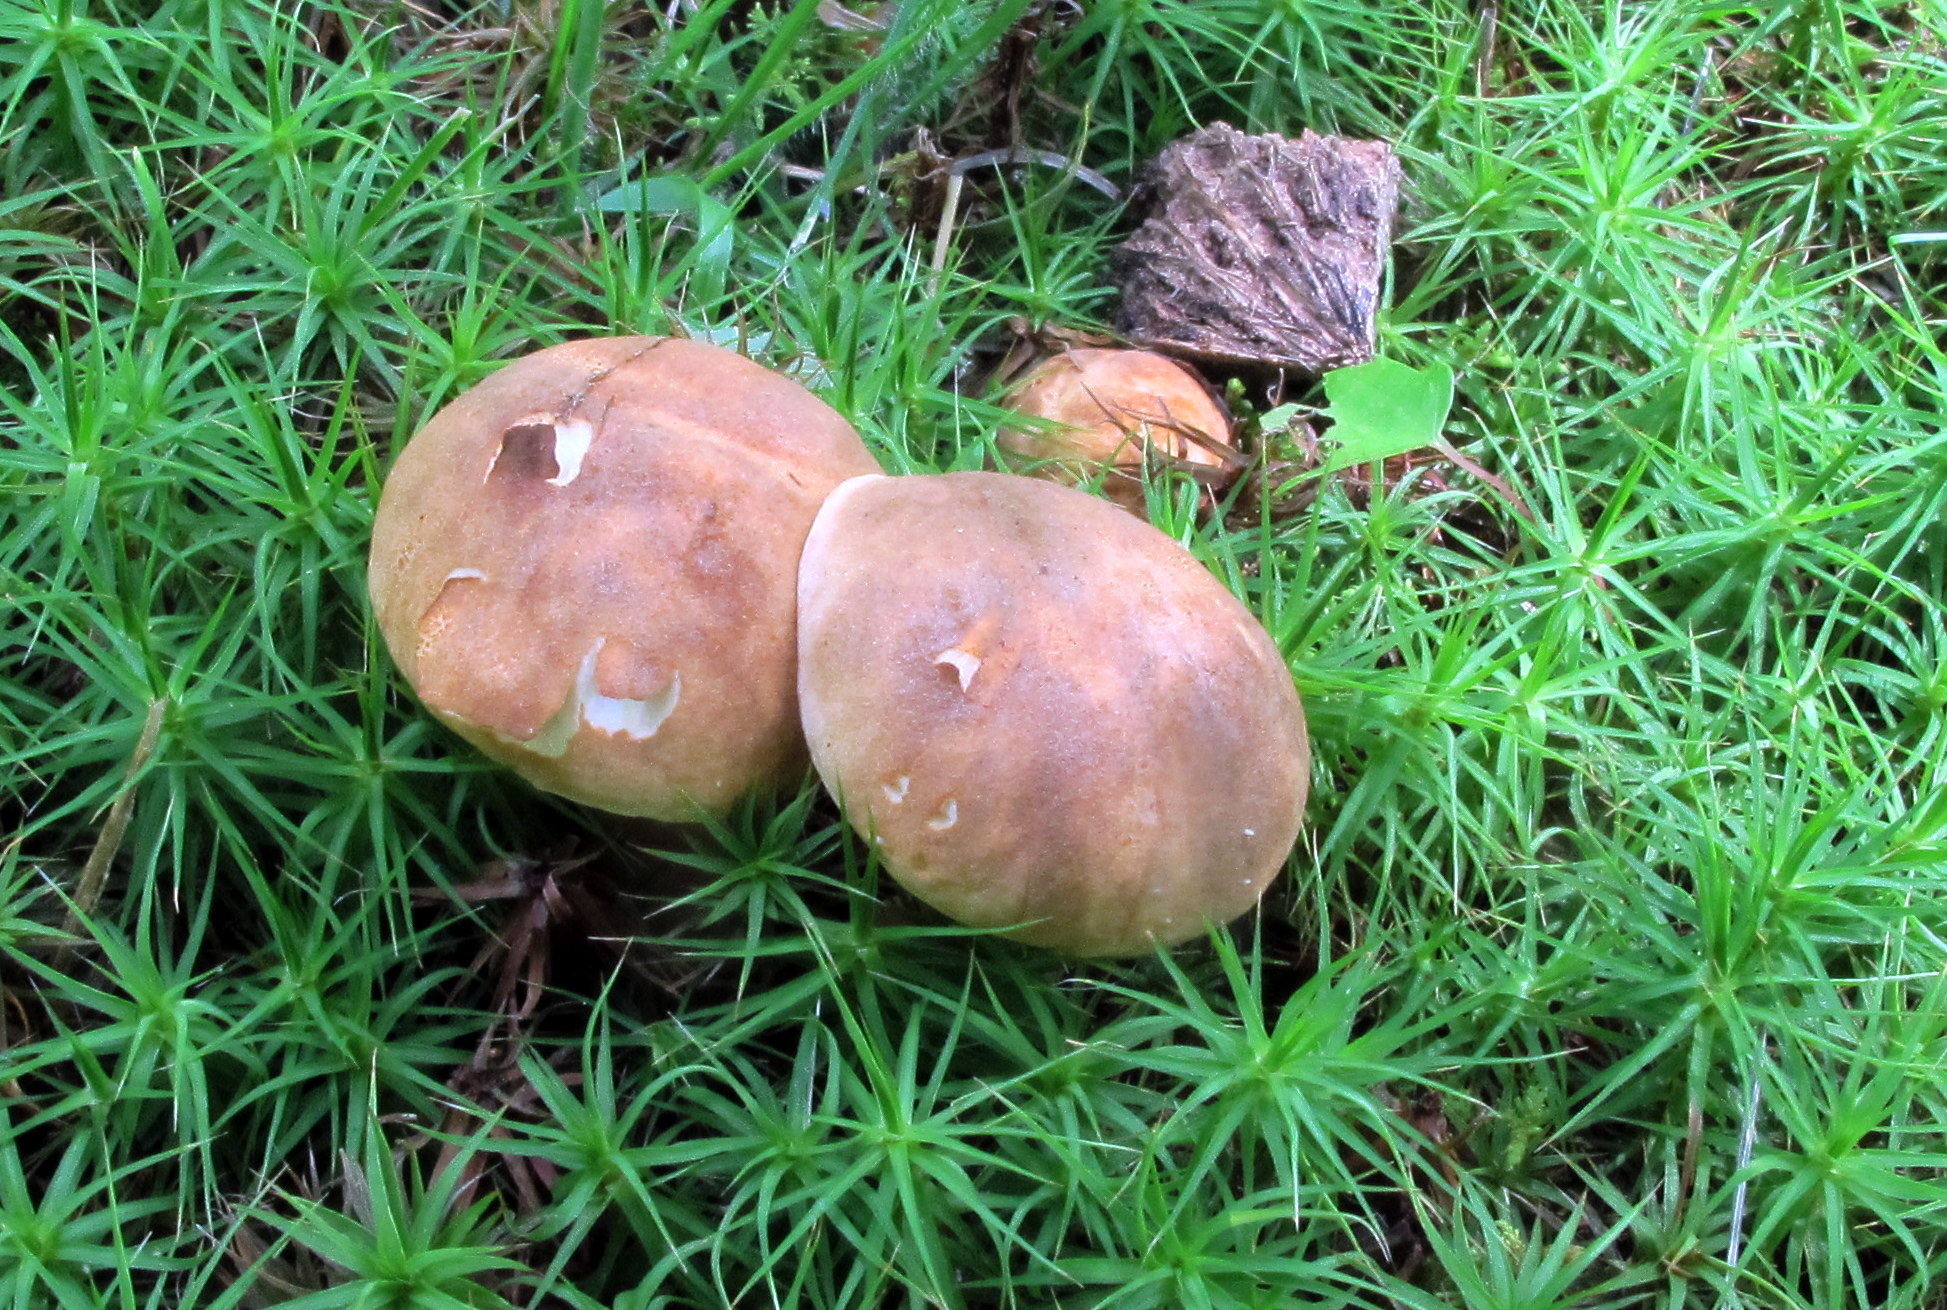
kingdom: Fungi
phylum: Basidiomycota
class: Agaricomycetes
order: Boletales
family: Gyroporaceae
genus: Gyroporus
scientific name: Gyroporus castaneus
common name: Chestnut bolete
